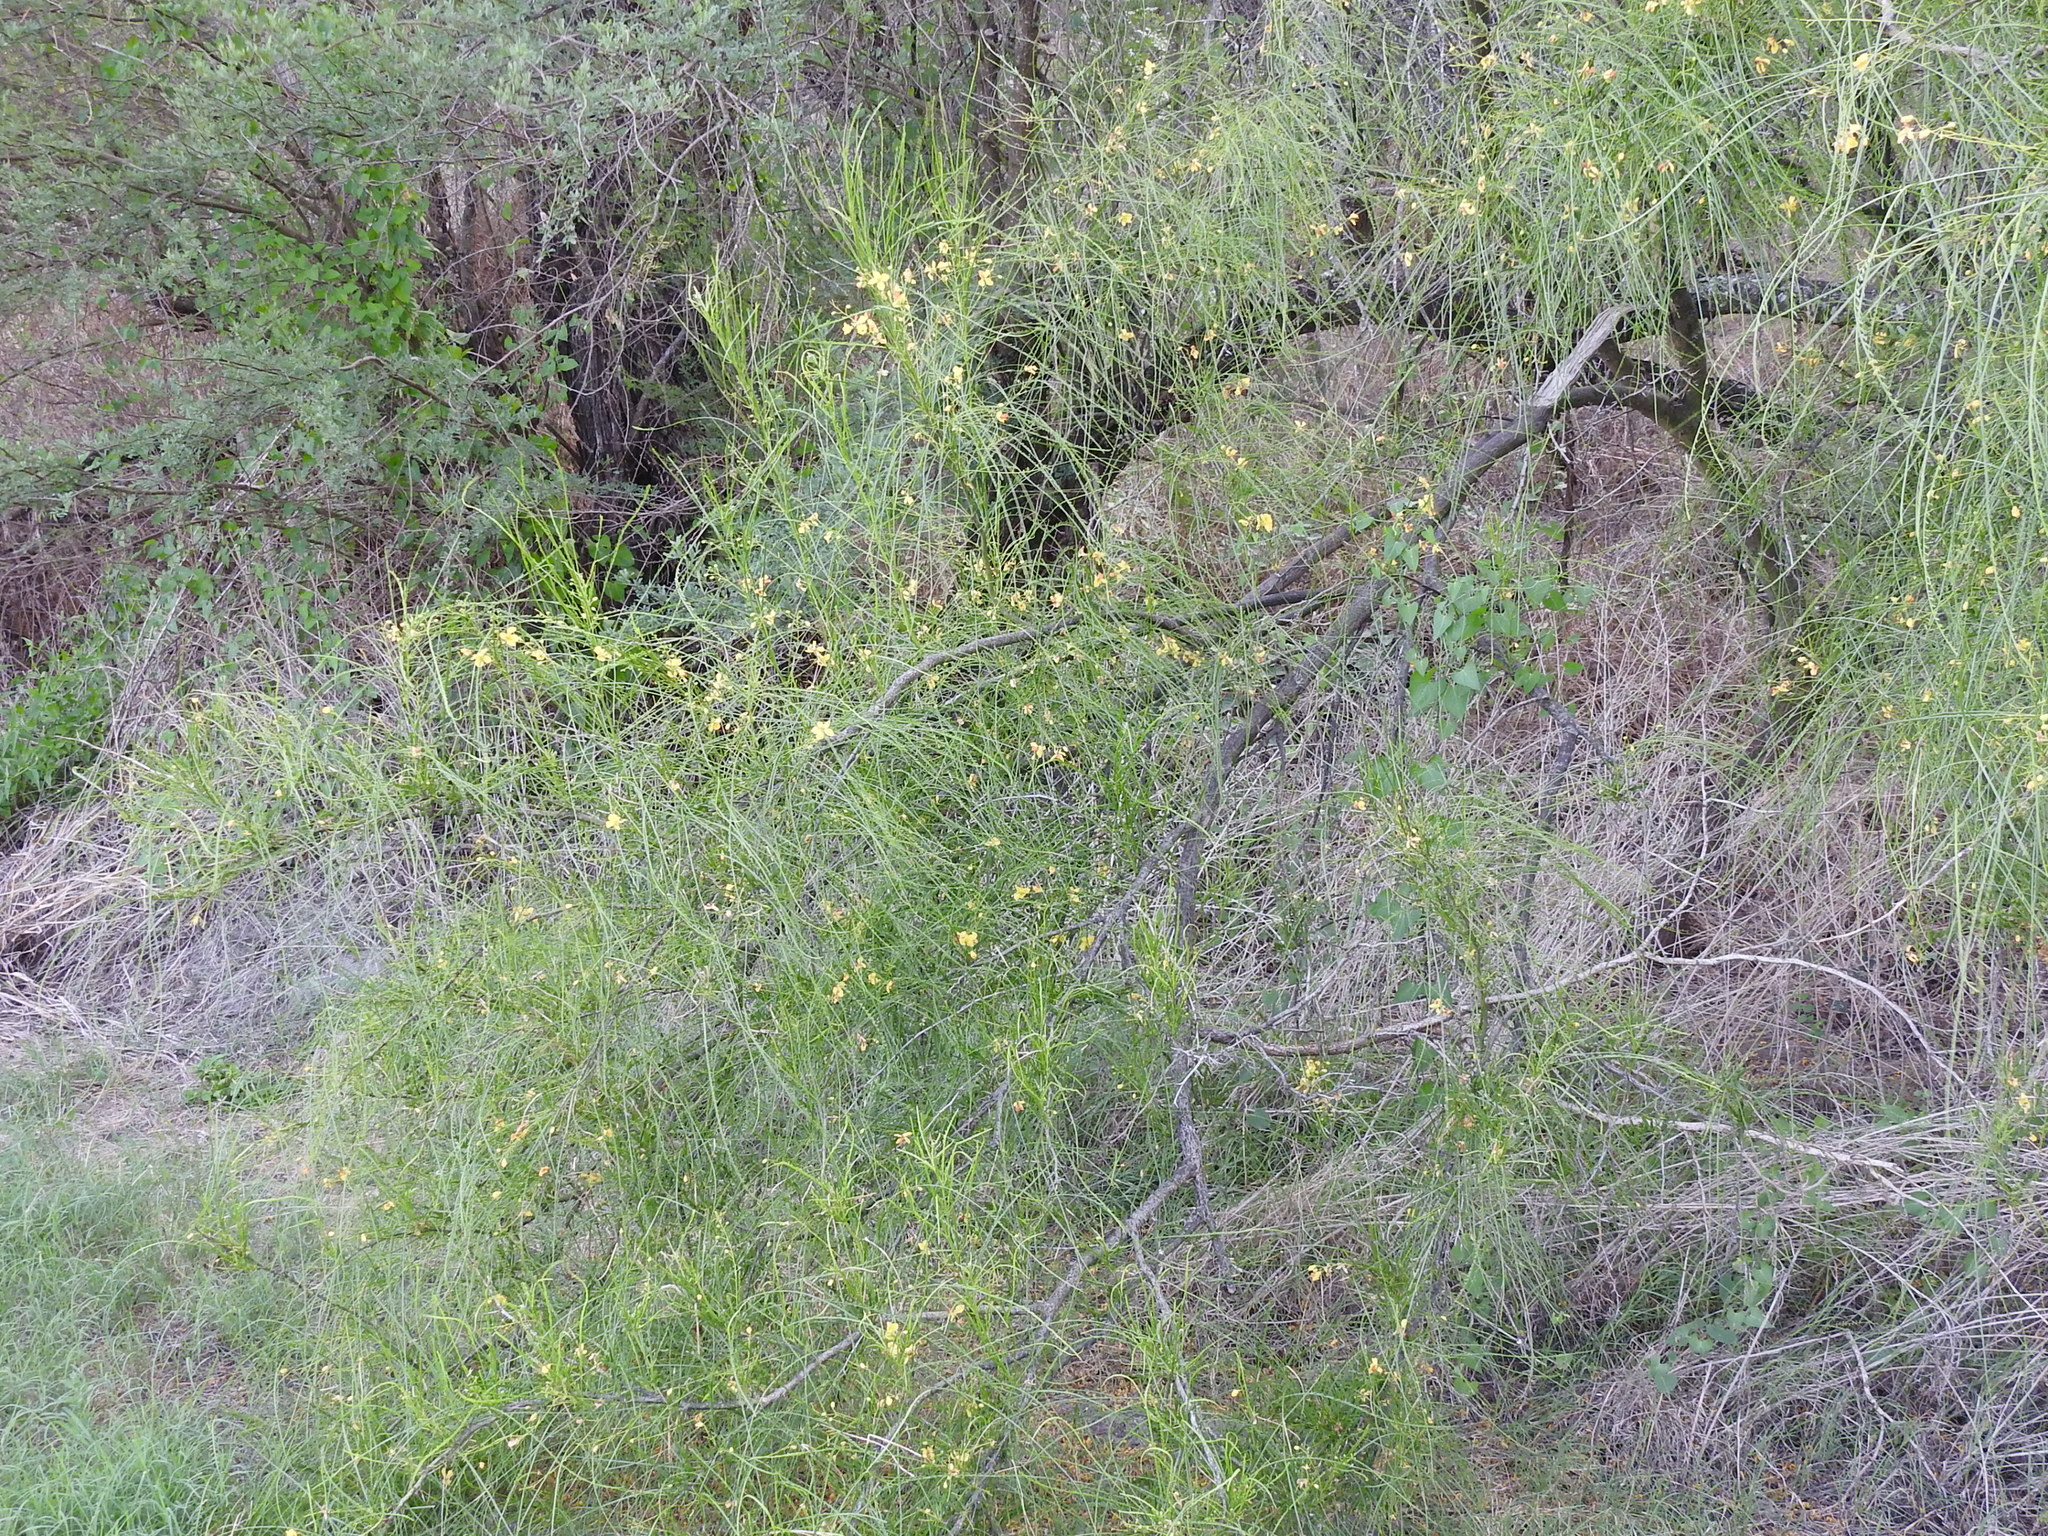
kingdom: Plantae
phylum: Tracheophyta
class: Magnoliopsida
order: Fabales
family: Fabaceae
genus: Parkinsonia
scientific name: Parkinsonia aculeata
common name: Jerusalem thorn
